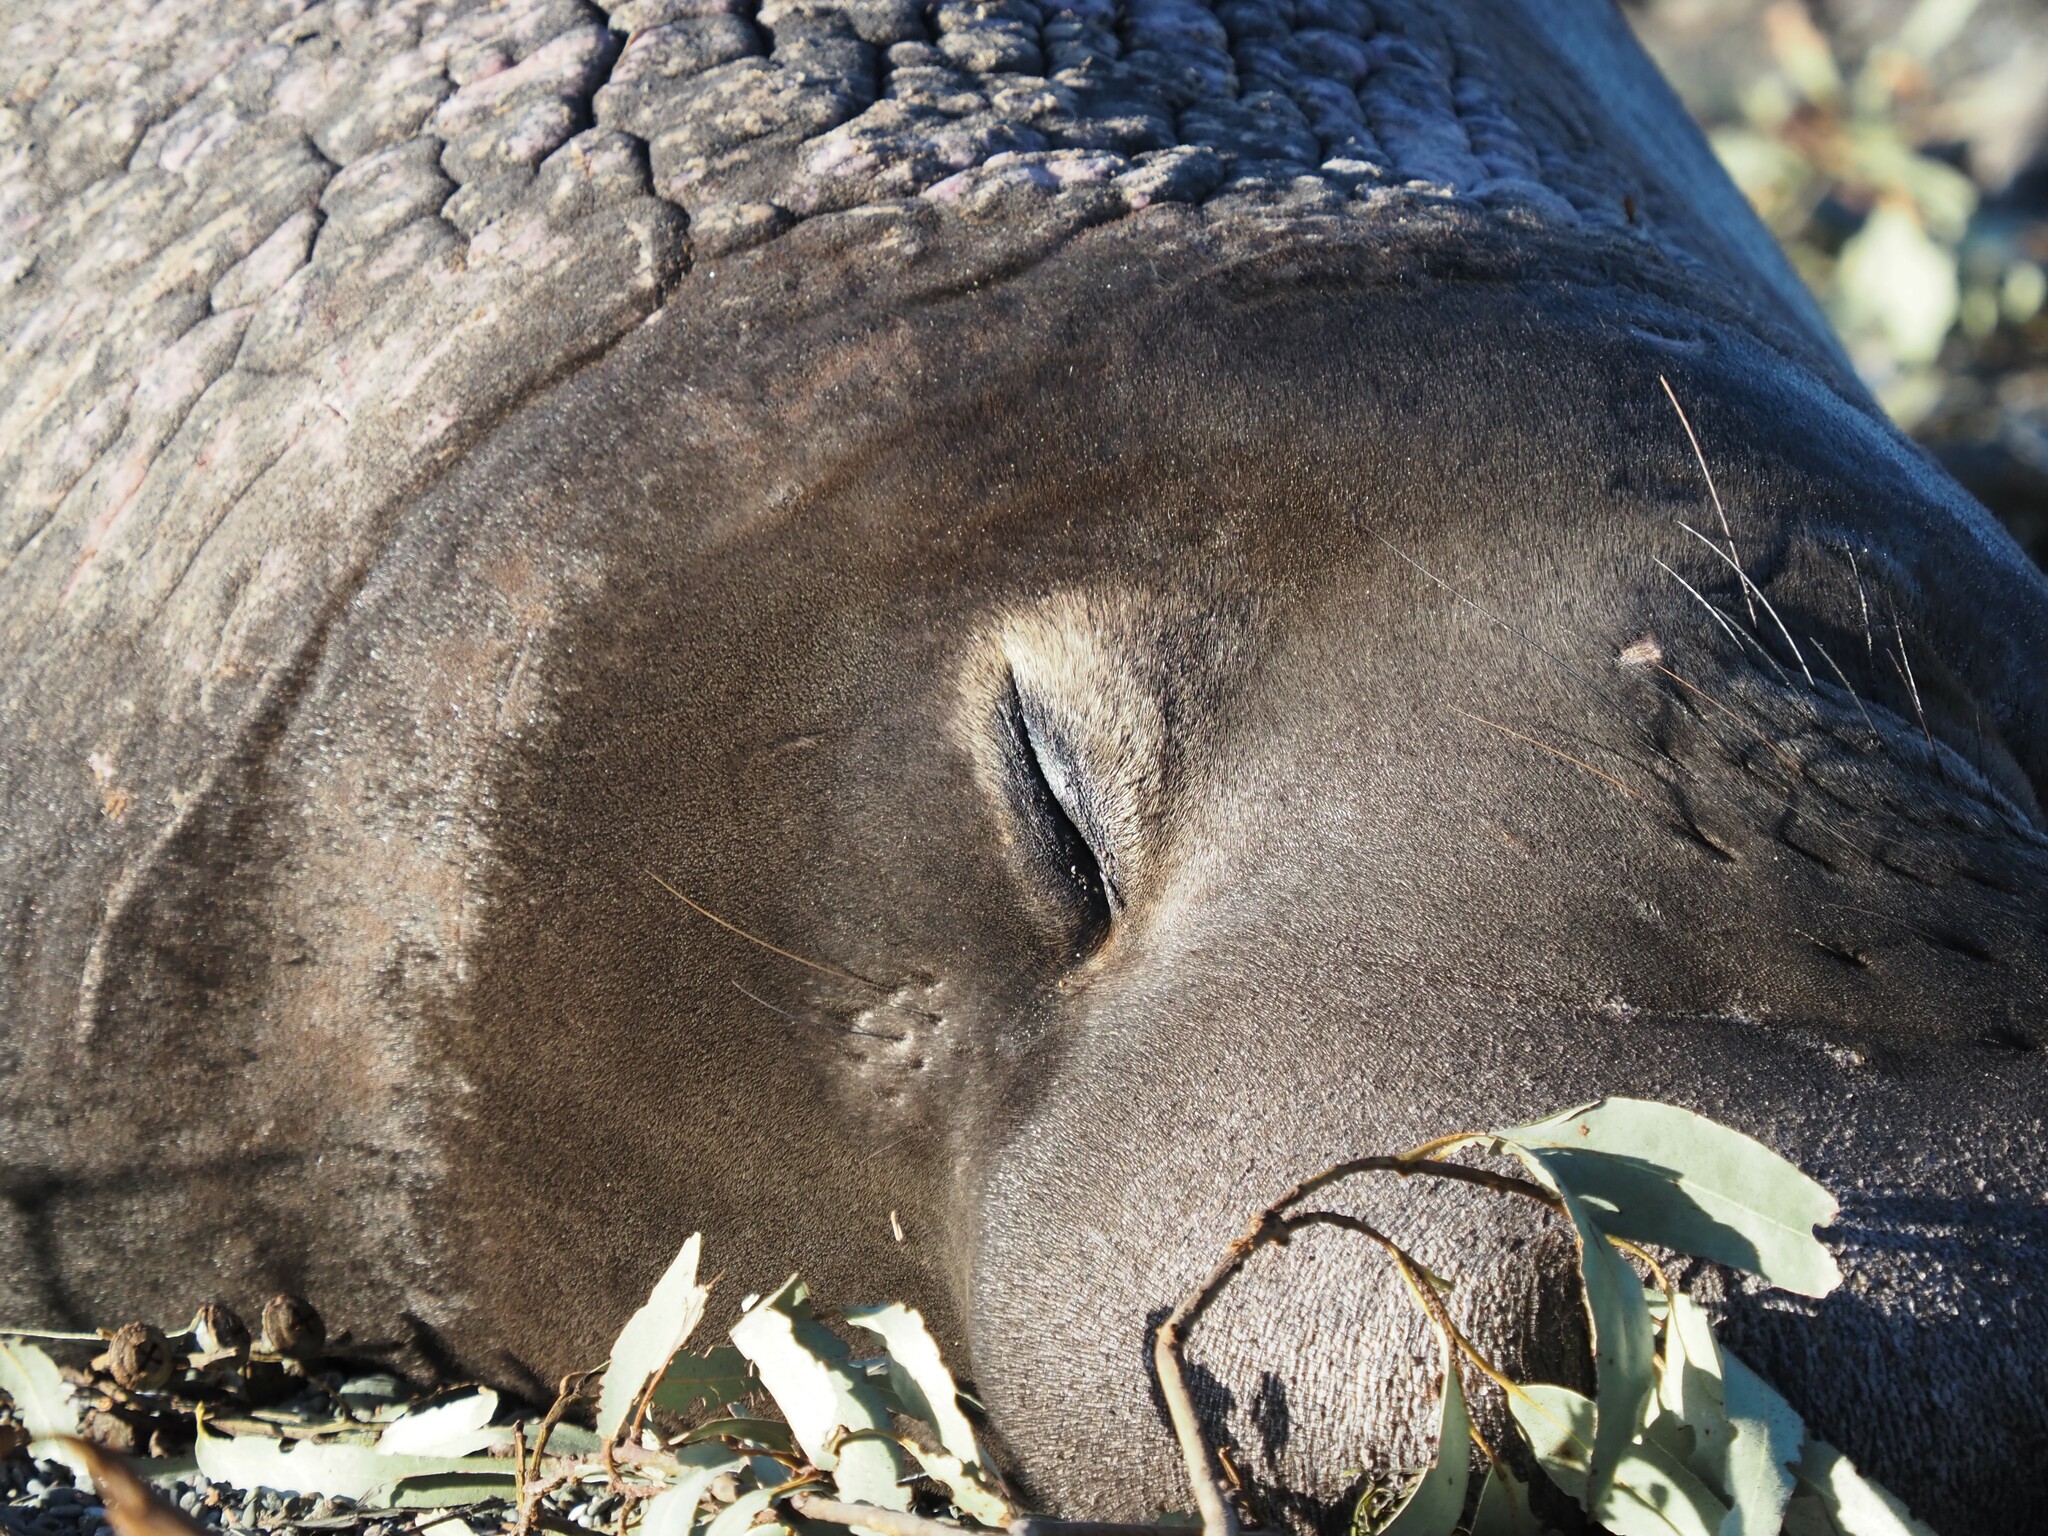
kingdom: Animalia
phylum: Chordata
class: Mammalia
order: Carnivora
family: Phocidae
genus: Mirounga
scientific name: Mirounga angustirostris
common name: Northern elephant seal
